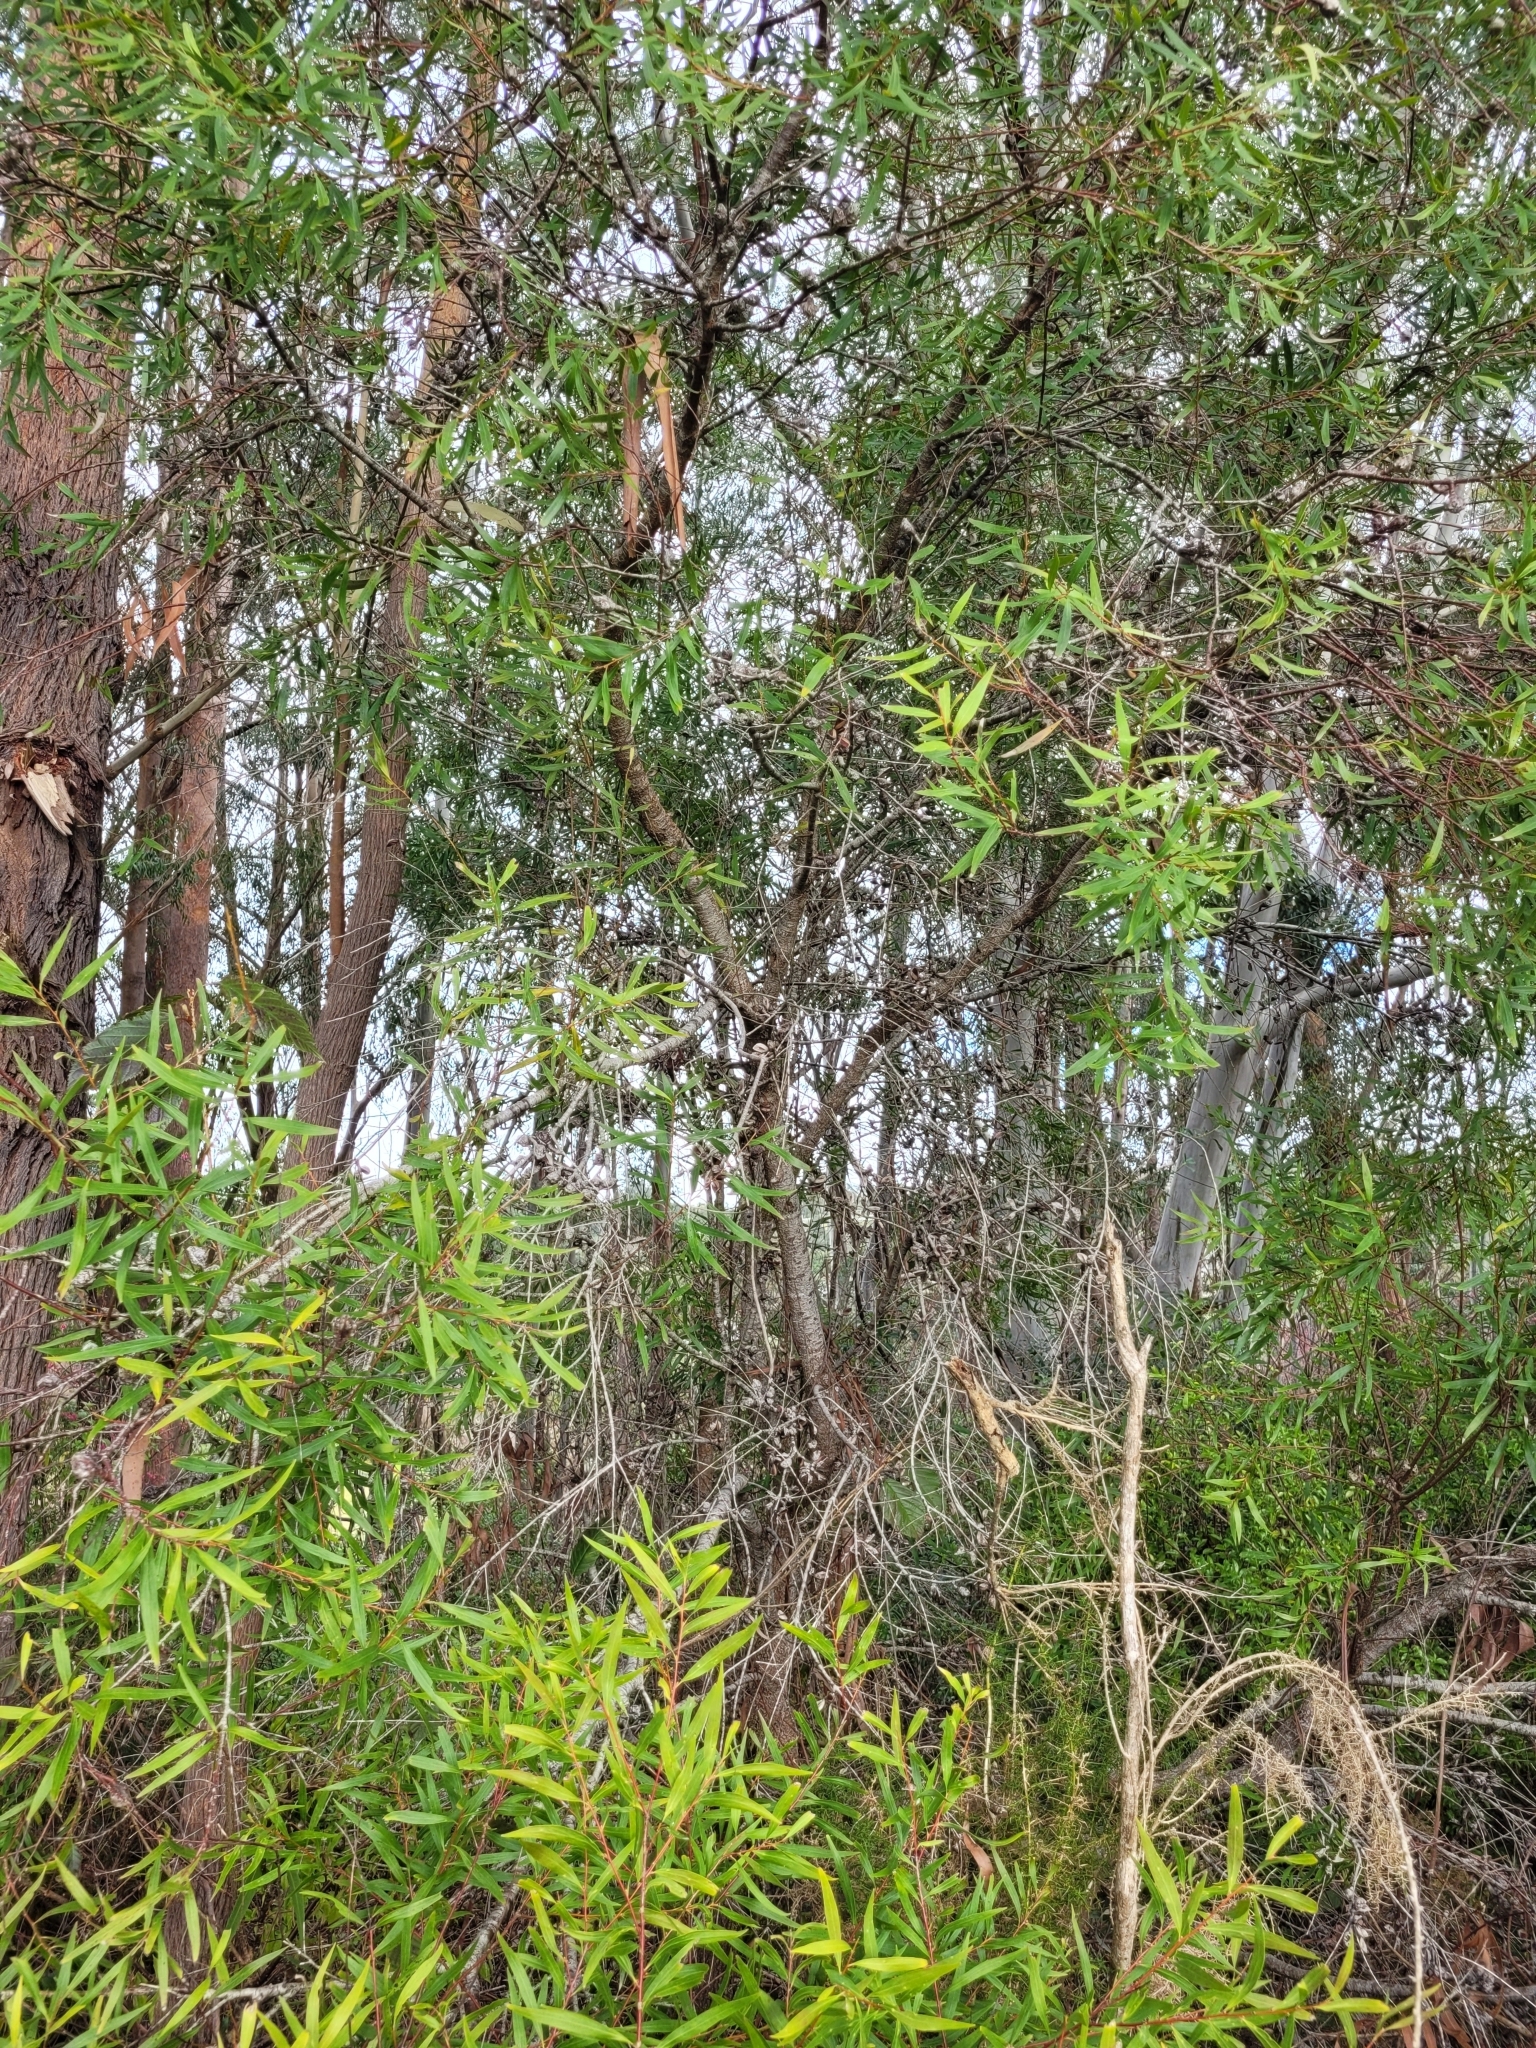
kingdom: Plantae
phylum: Tracheophyta
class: Magnoliopsida
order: Proteales
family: Proteaceae
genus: Hakea
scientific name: Hakea salicifolia
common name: Willow hakea
